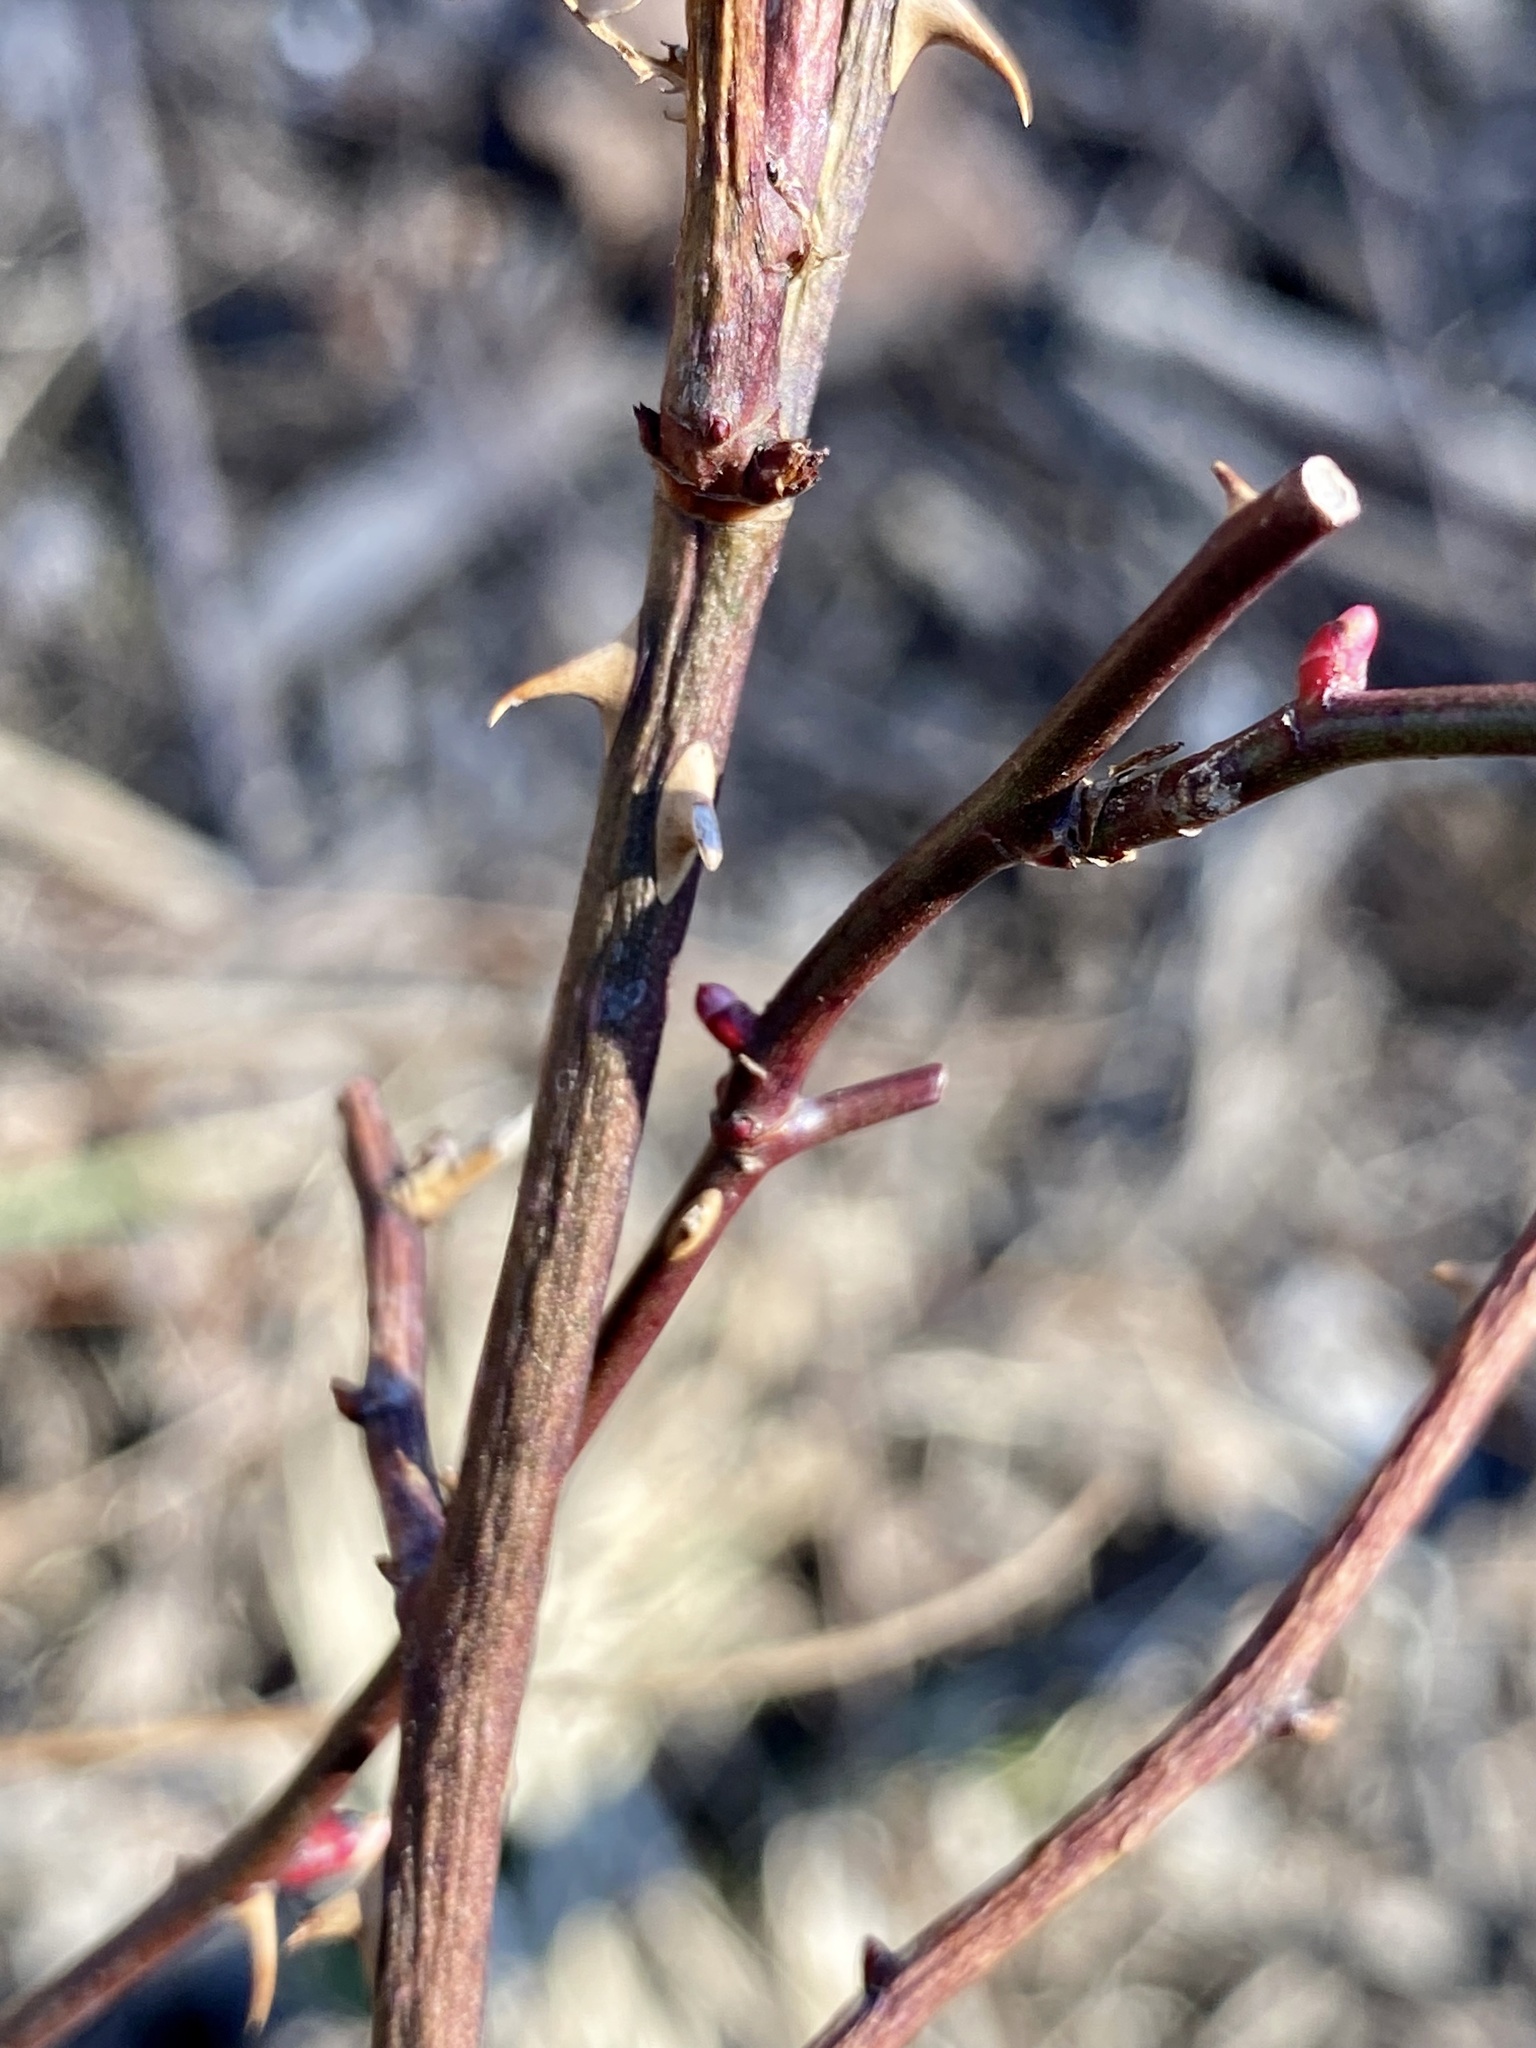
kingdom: Plantae
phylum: Tracheophyta
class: Magnoliopsida
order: Rosales
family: Rosaceae
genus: Rosa
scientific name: Rosa multiflora
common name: Multiflora rose
